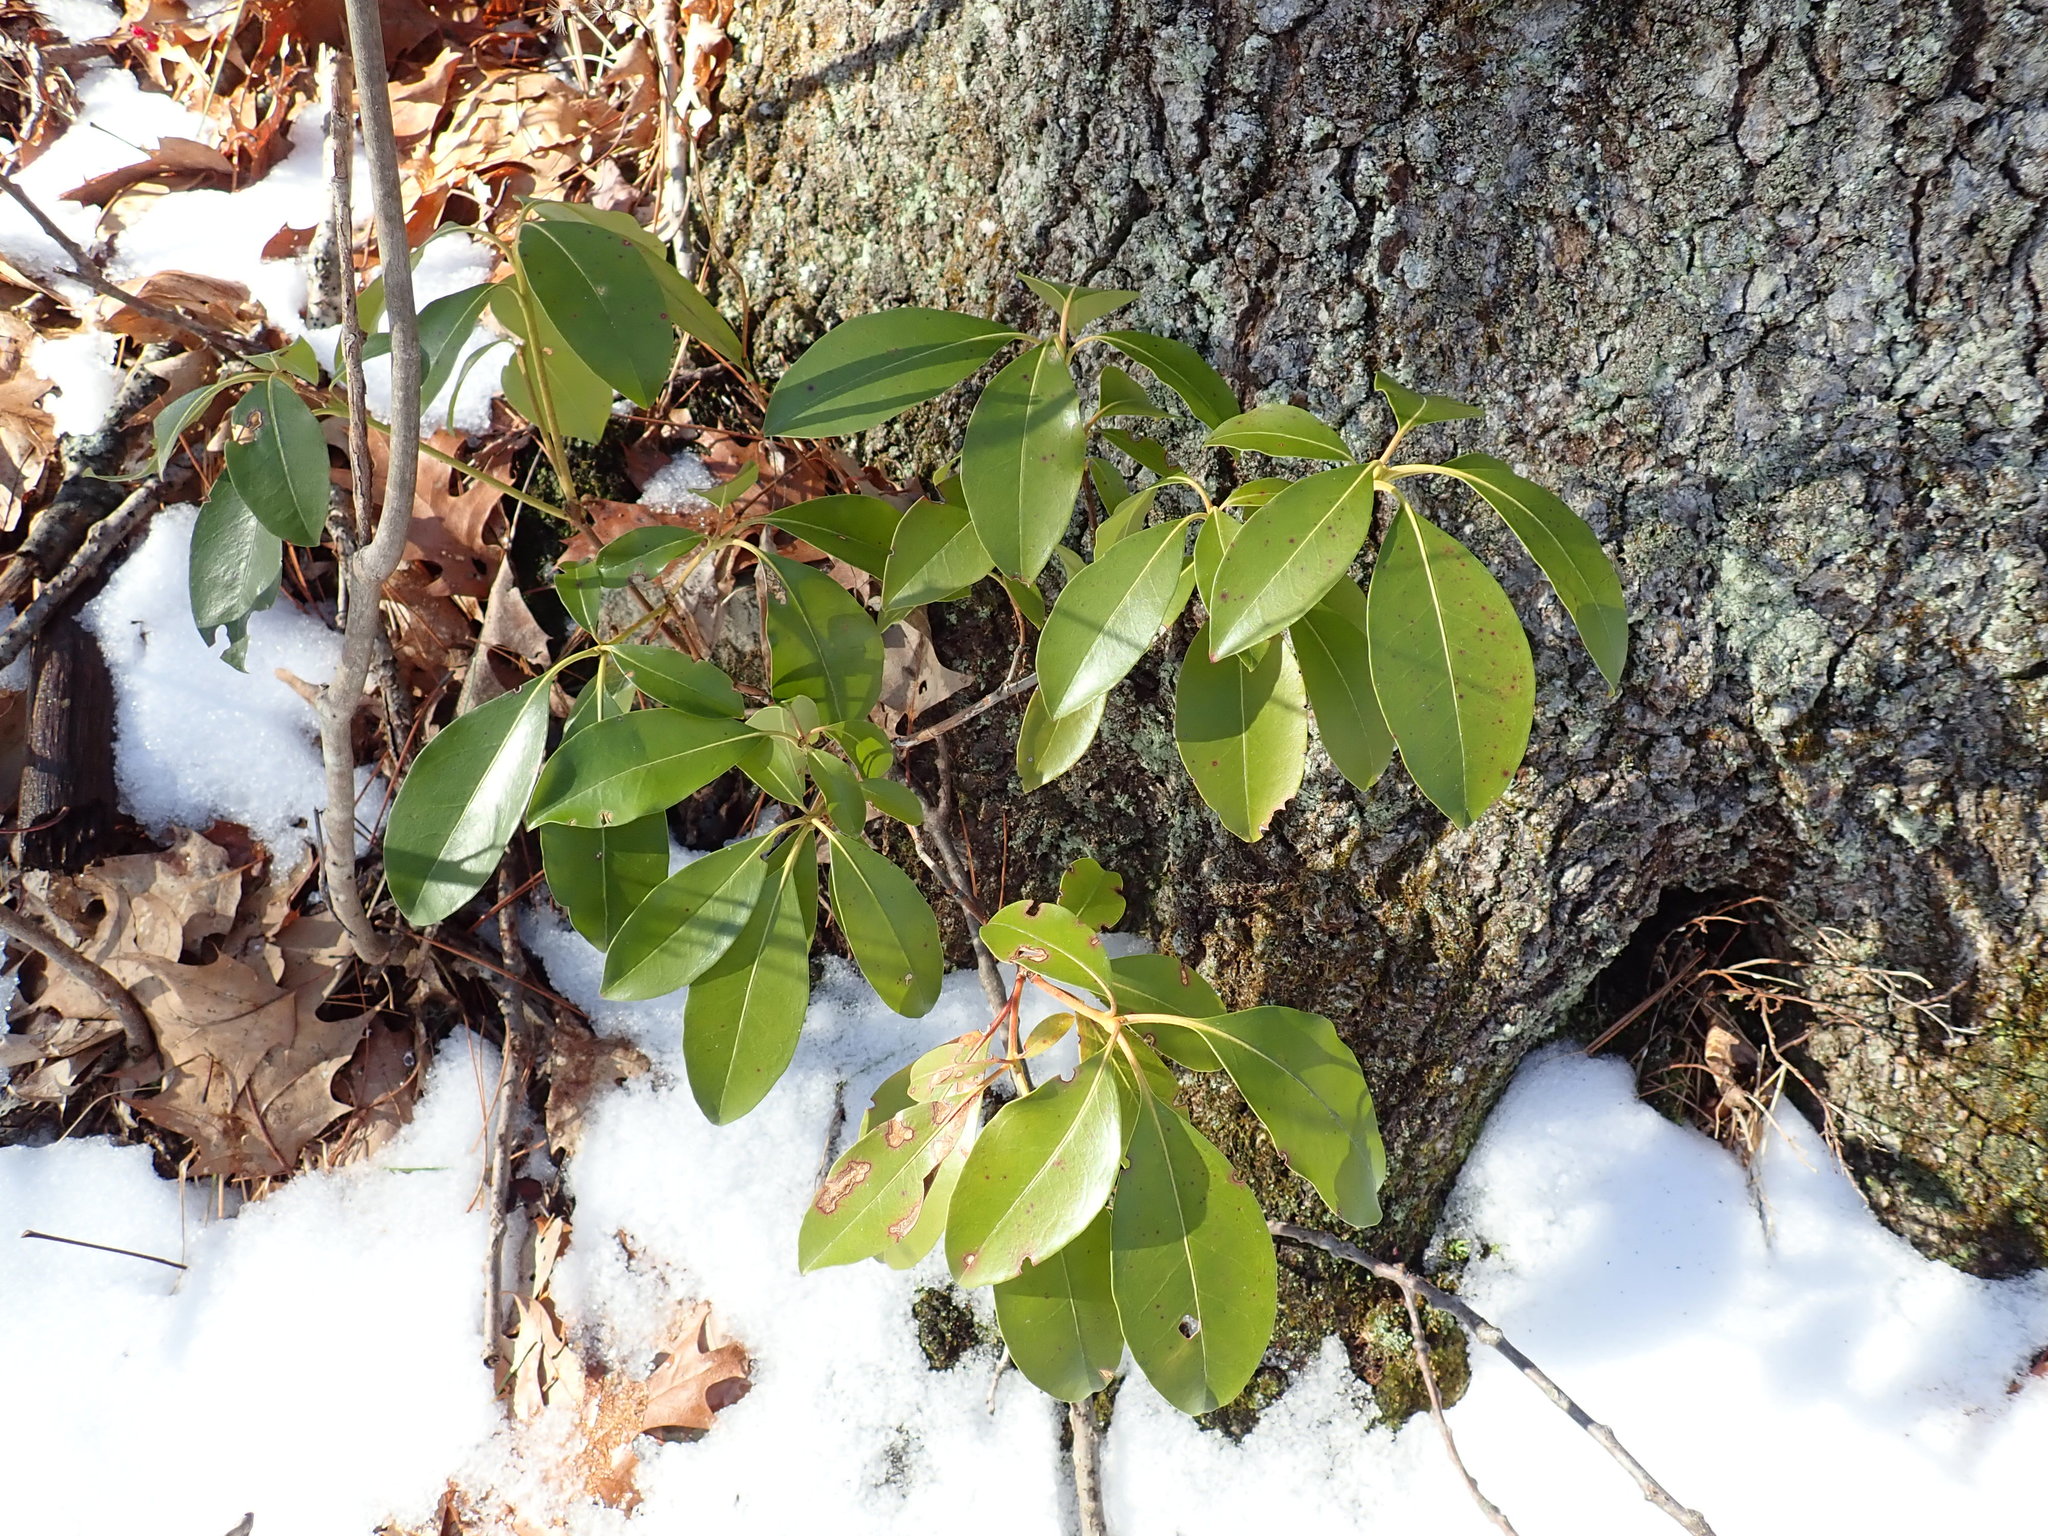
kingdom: Plantae
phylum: Tracheophyta
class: Magnoliopsida
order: Ericales
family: Ericaceae
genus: Kalmia
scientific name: Kalmia latifolia
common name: Mountain-laurel
